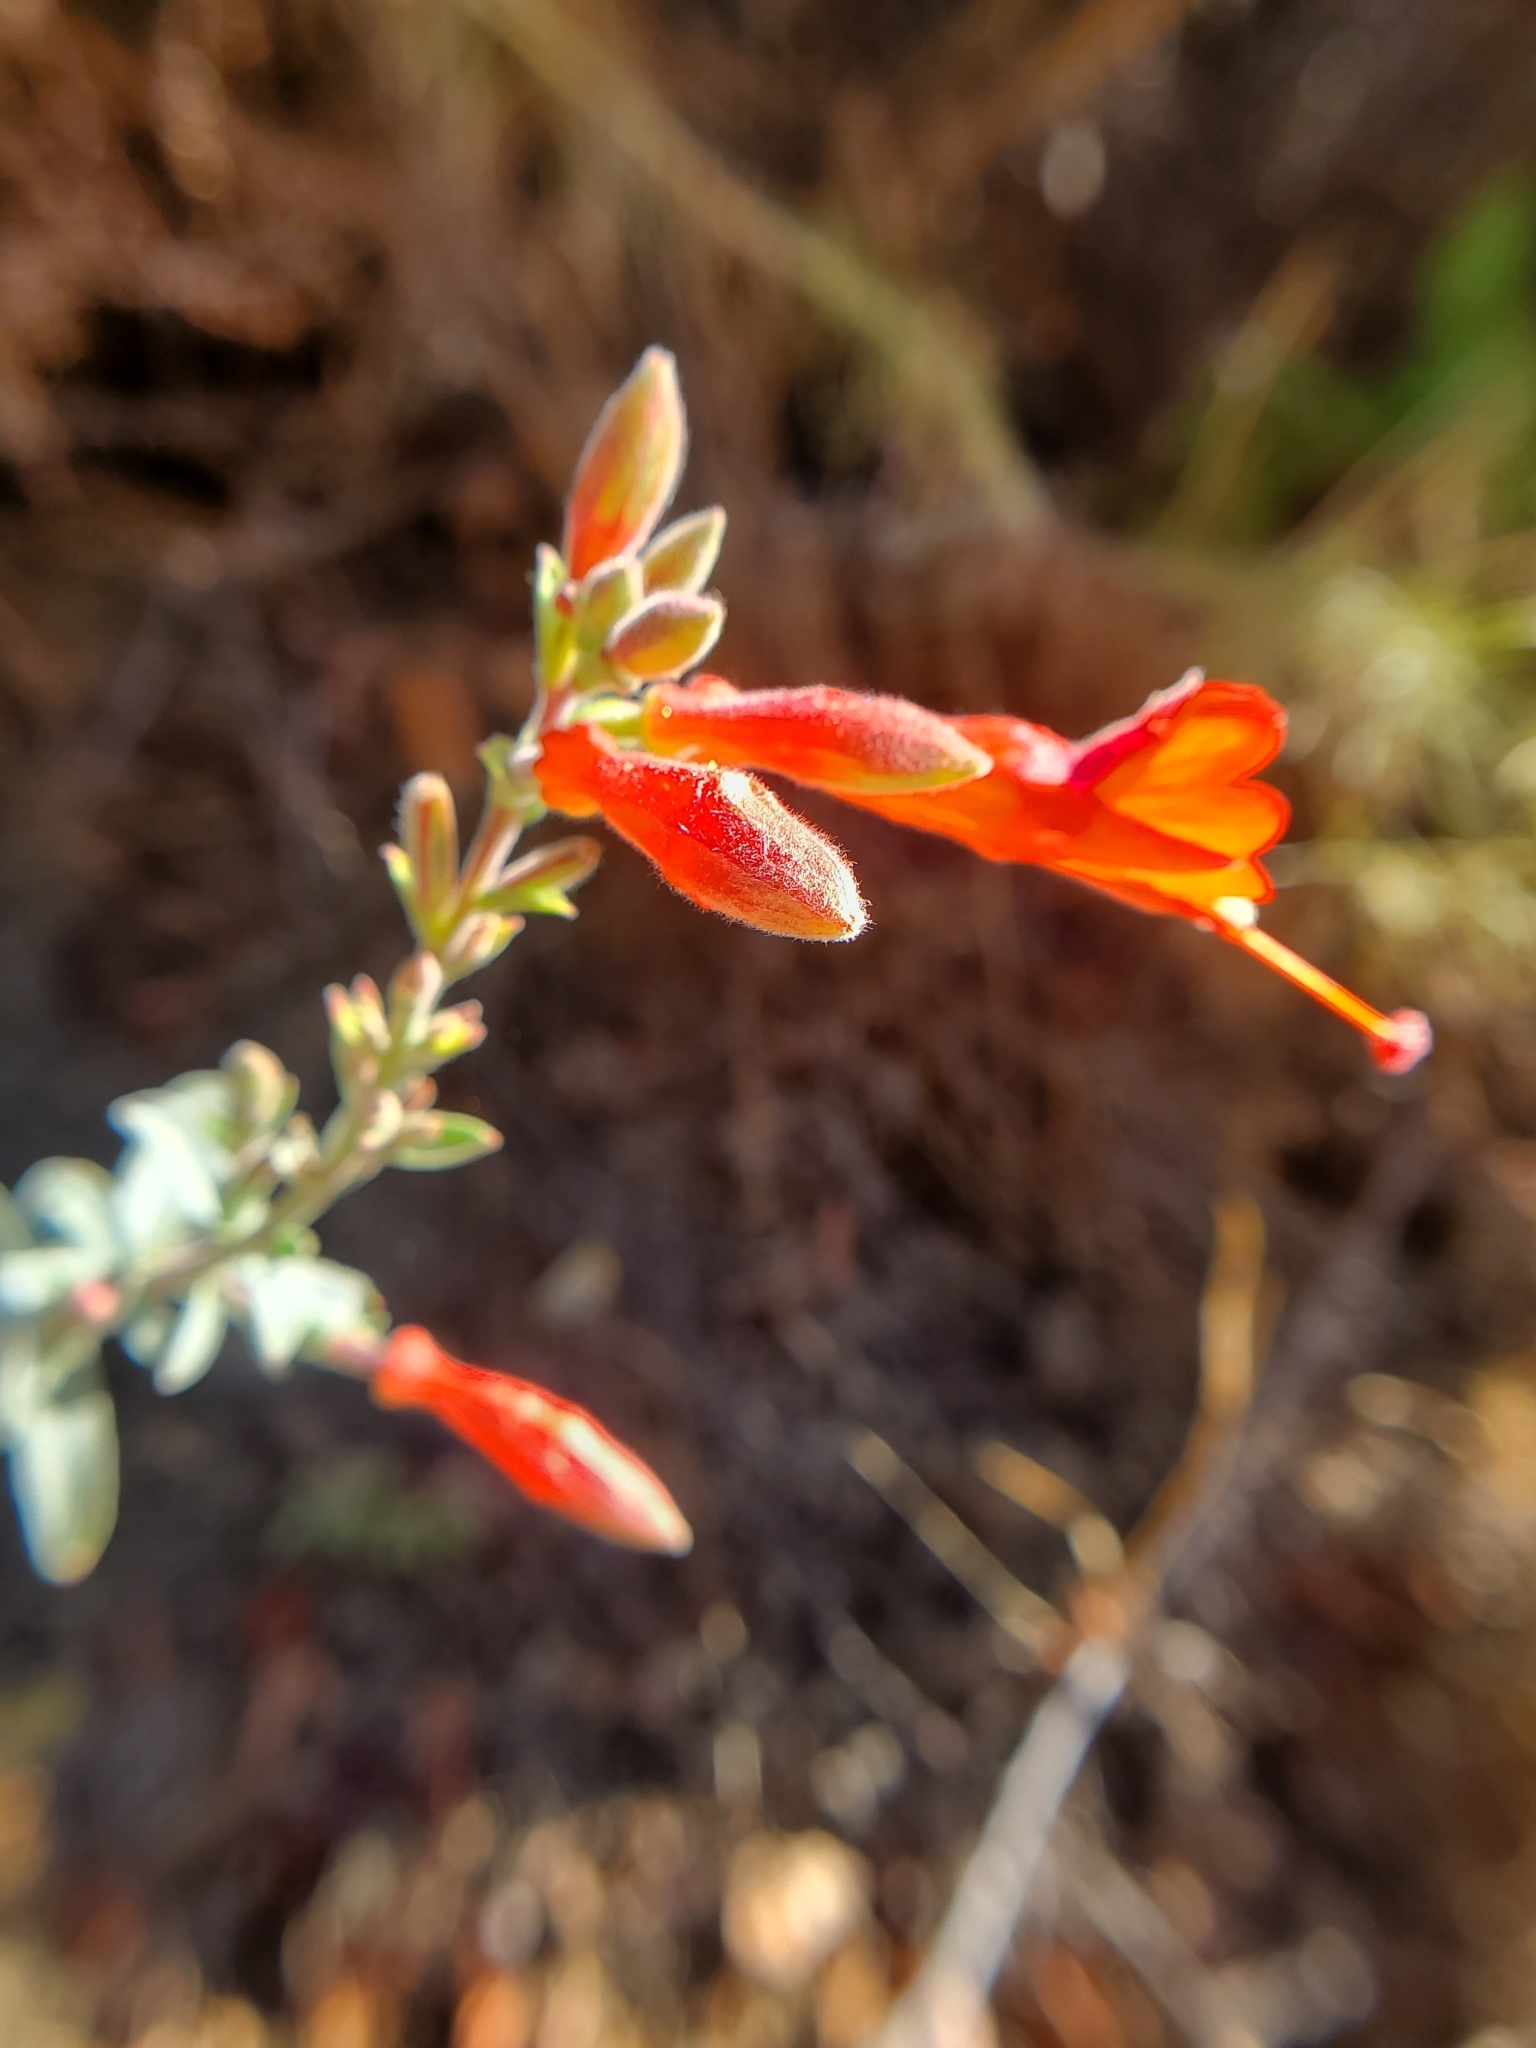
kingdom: Plantae
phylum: Tracheophyta
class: Magnoliopsida
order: Myrtales
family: Onagraceae
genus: Epilobium
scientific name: Epilobium canum
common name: California-fuchsia
